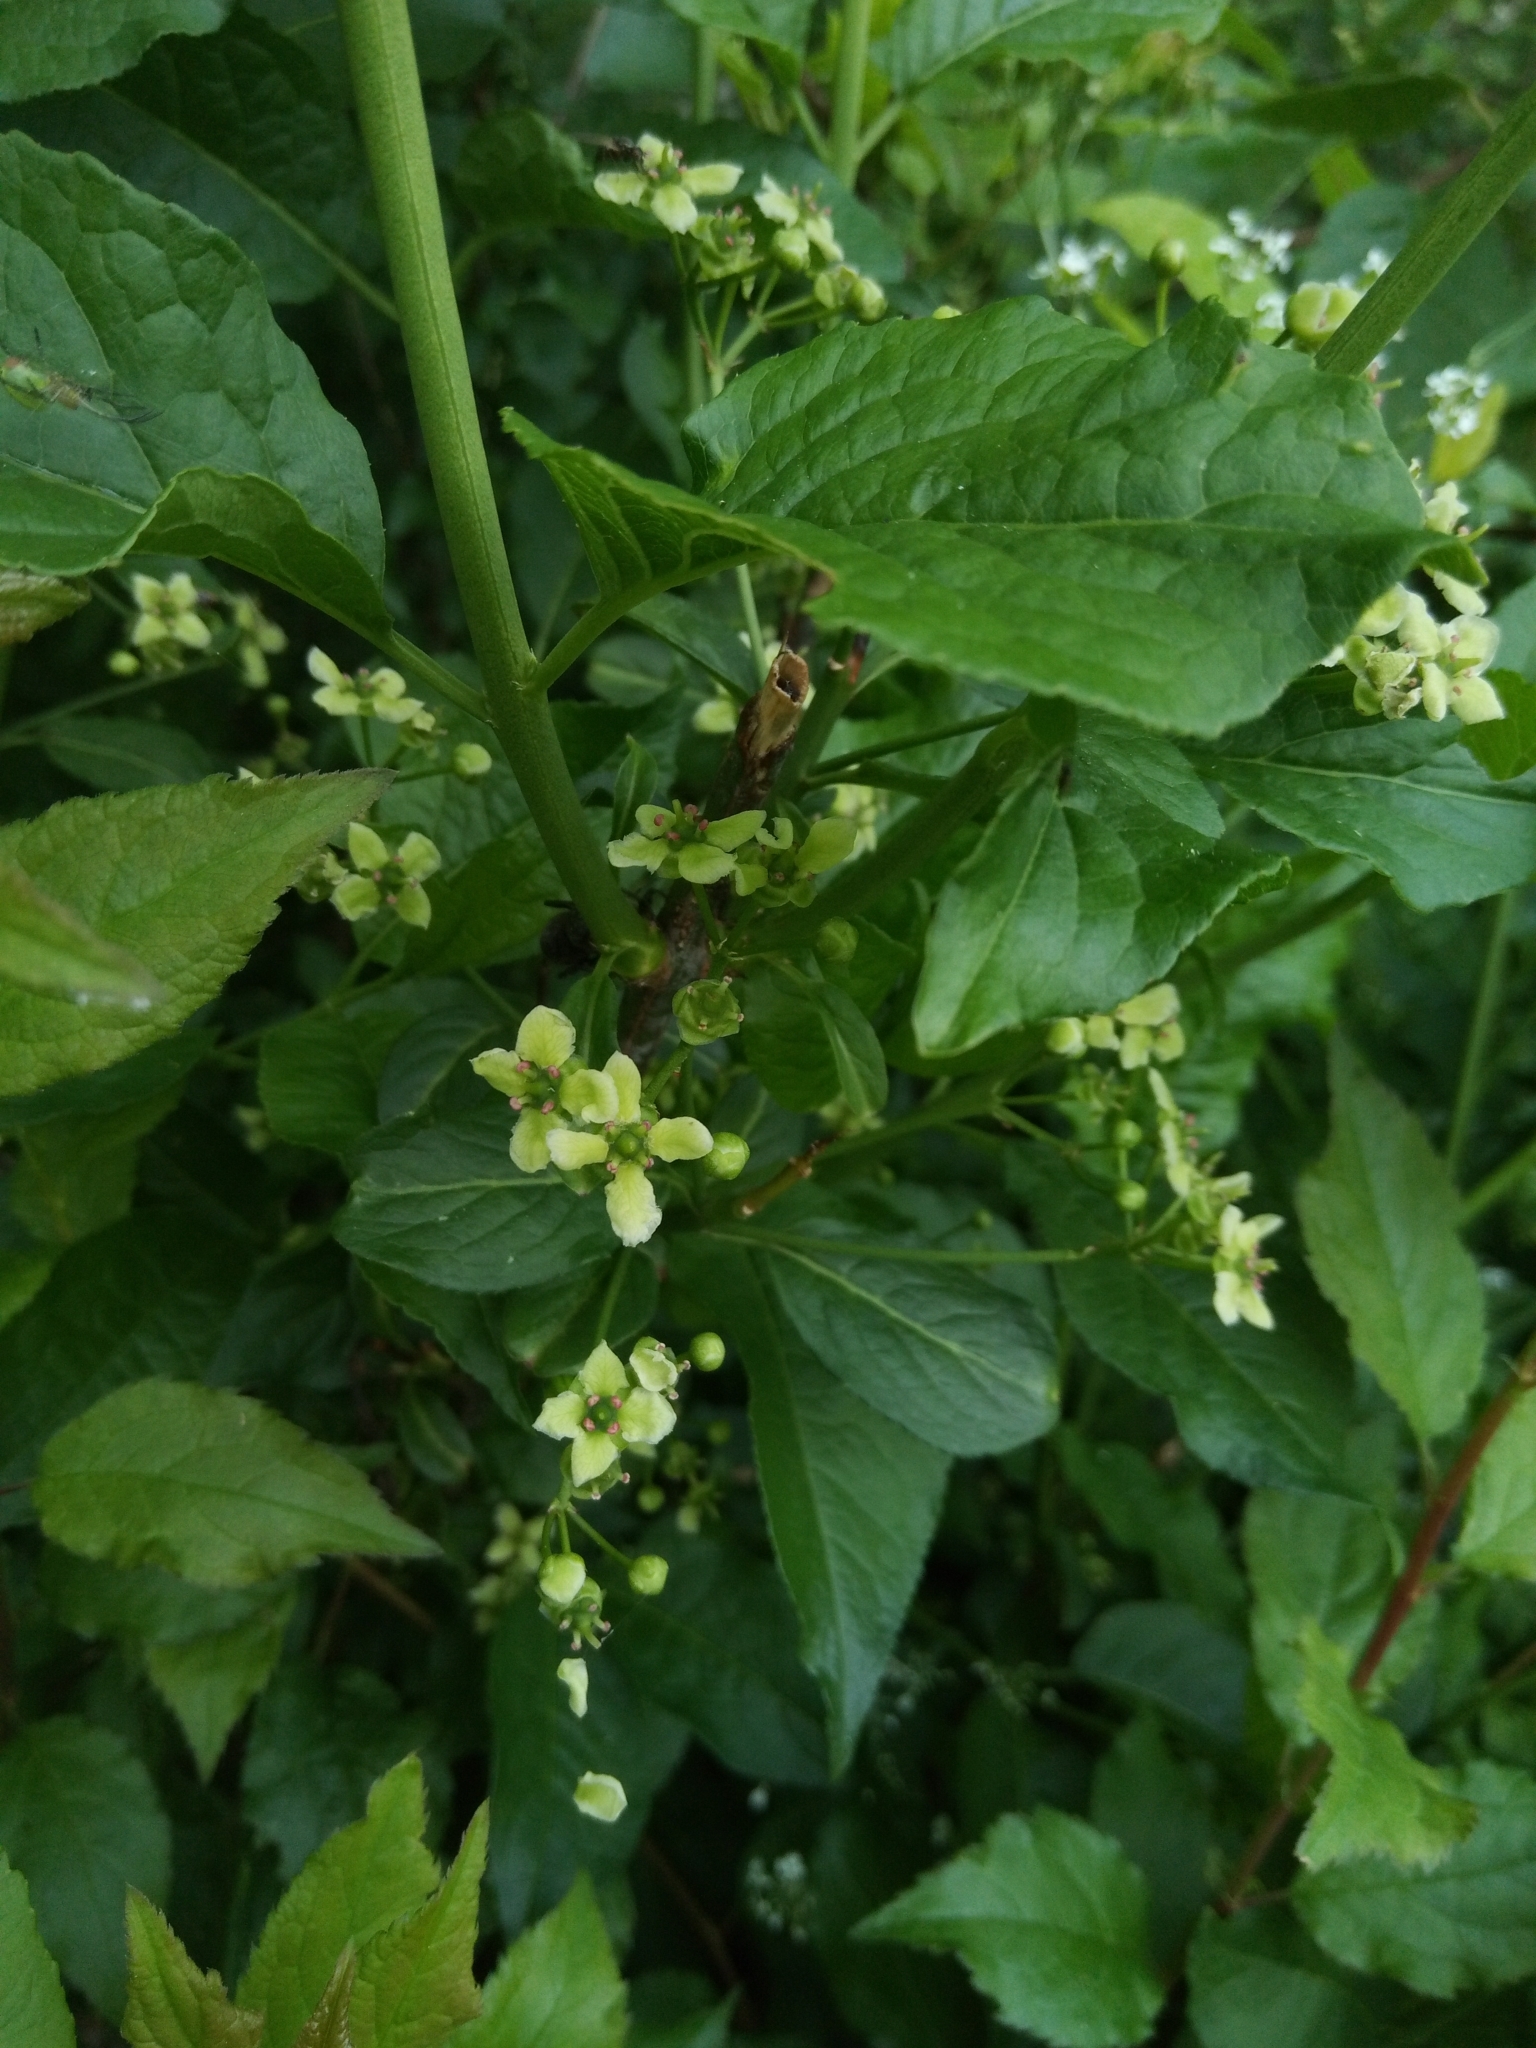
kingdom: Plantae
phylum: Tracheophyta
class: Magnoliopsida
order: Celastrales
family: Celastraceae
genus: Euonymus
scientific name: Euonymus europaeus
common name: Spindle
